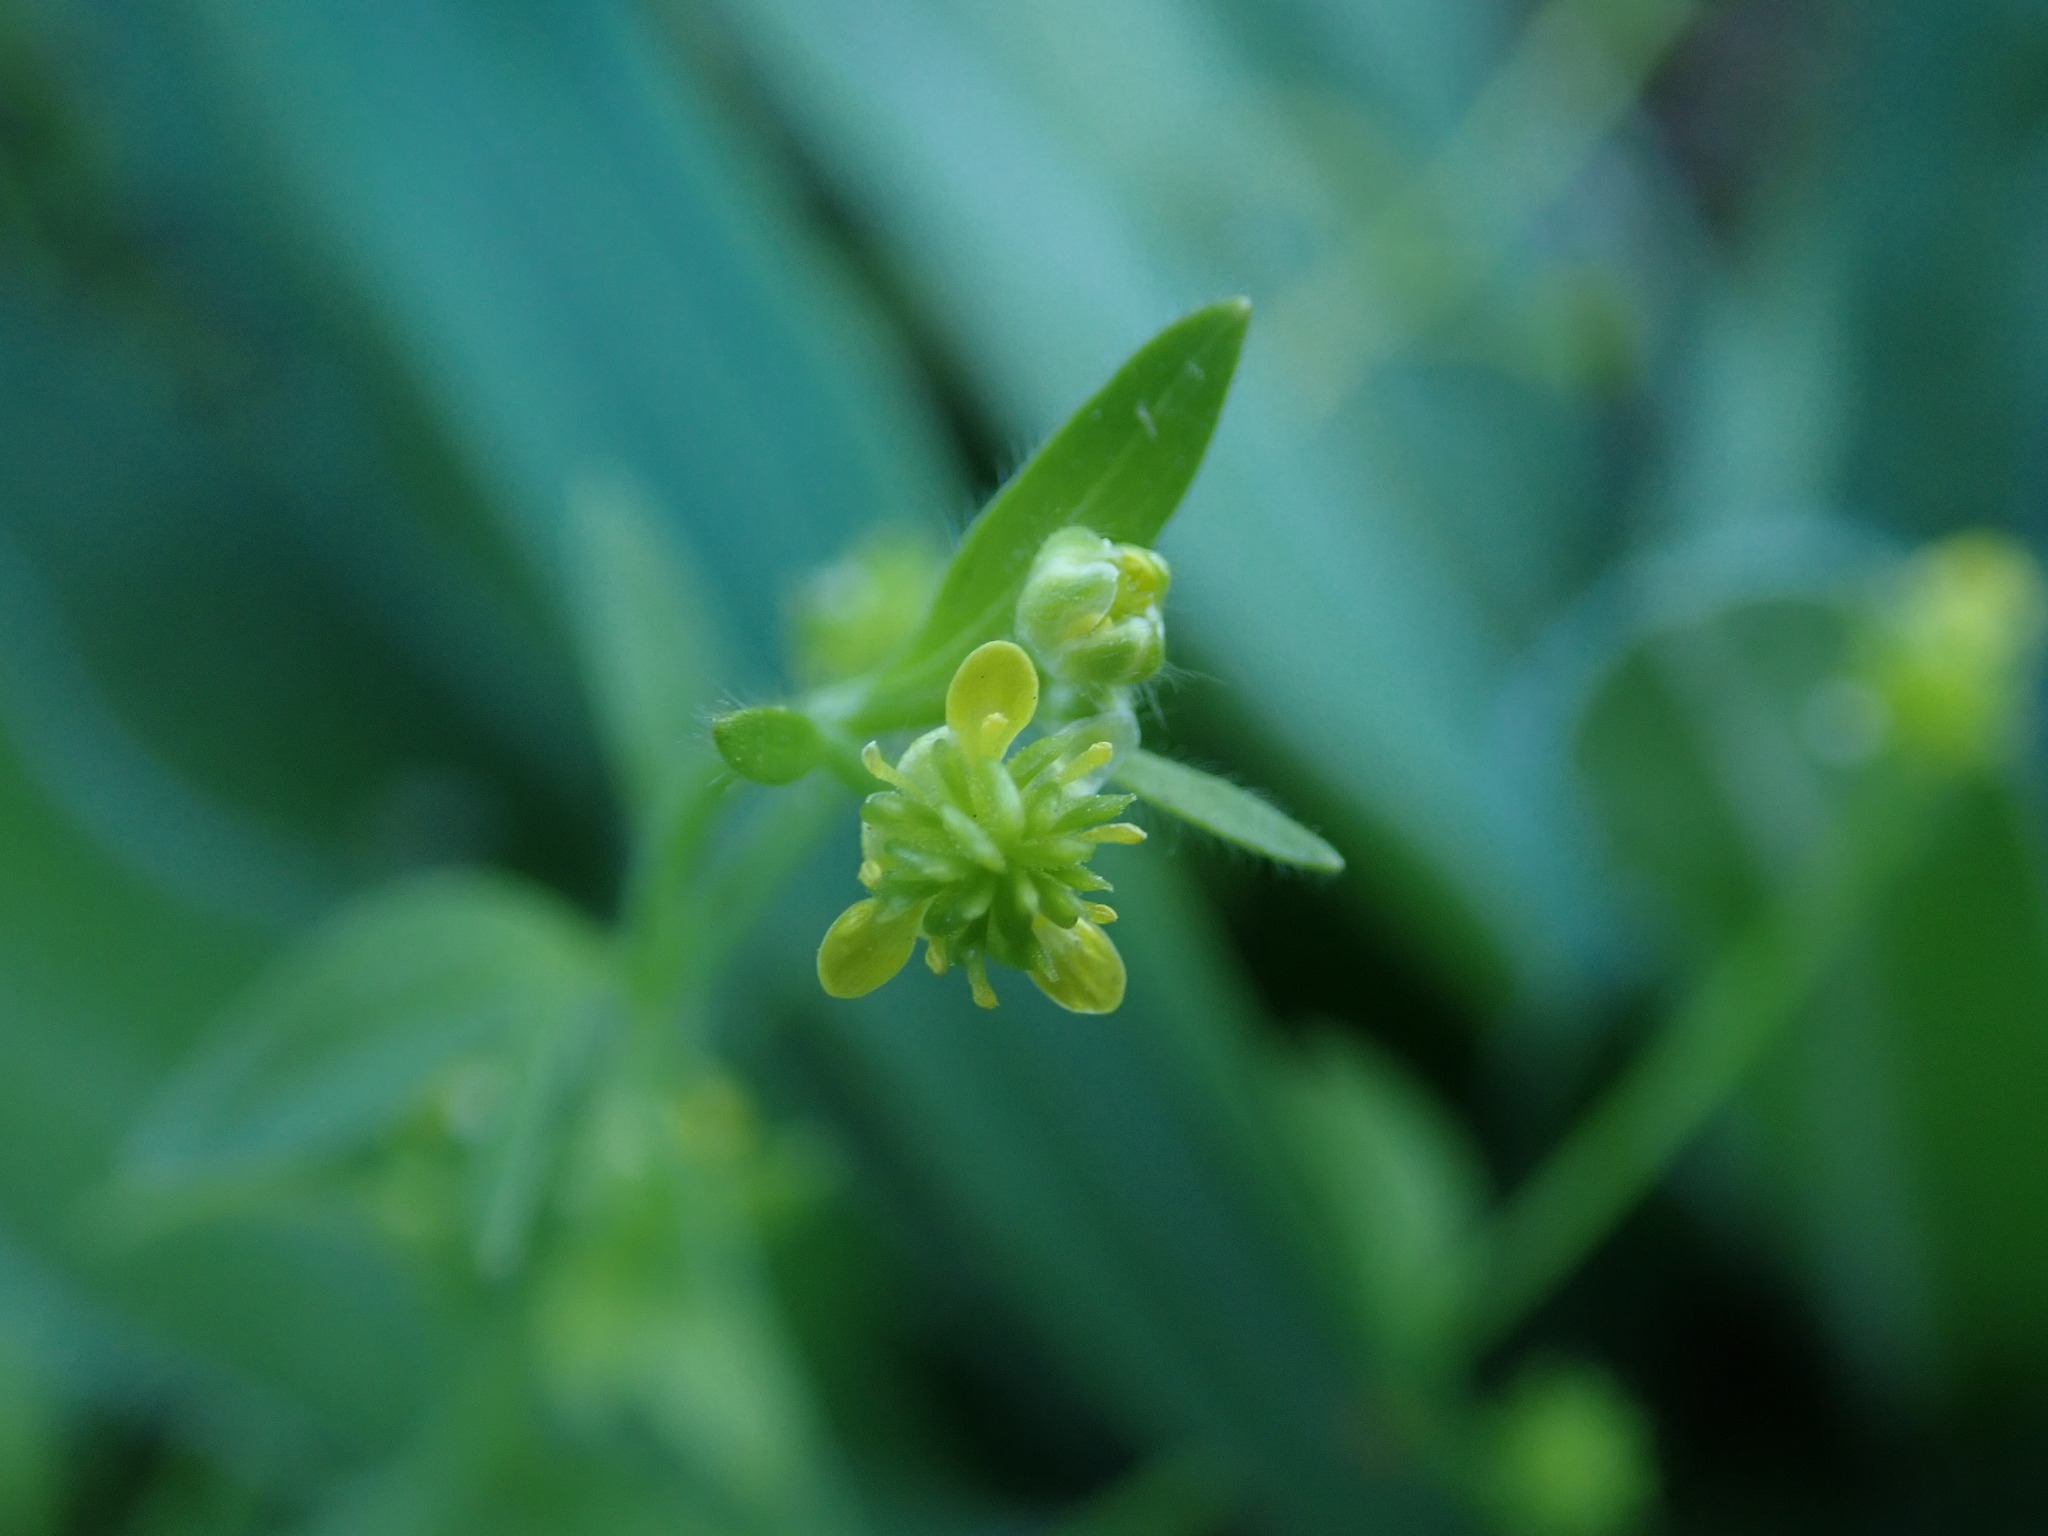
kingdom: Plantae
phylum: Tracheophyta
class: Magnoliopsida
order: Ranunculales
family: Ranunculaceae
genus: Ranunculus
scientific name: Ranunculus parviflorus
